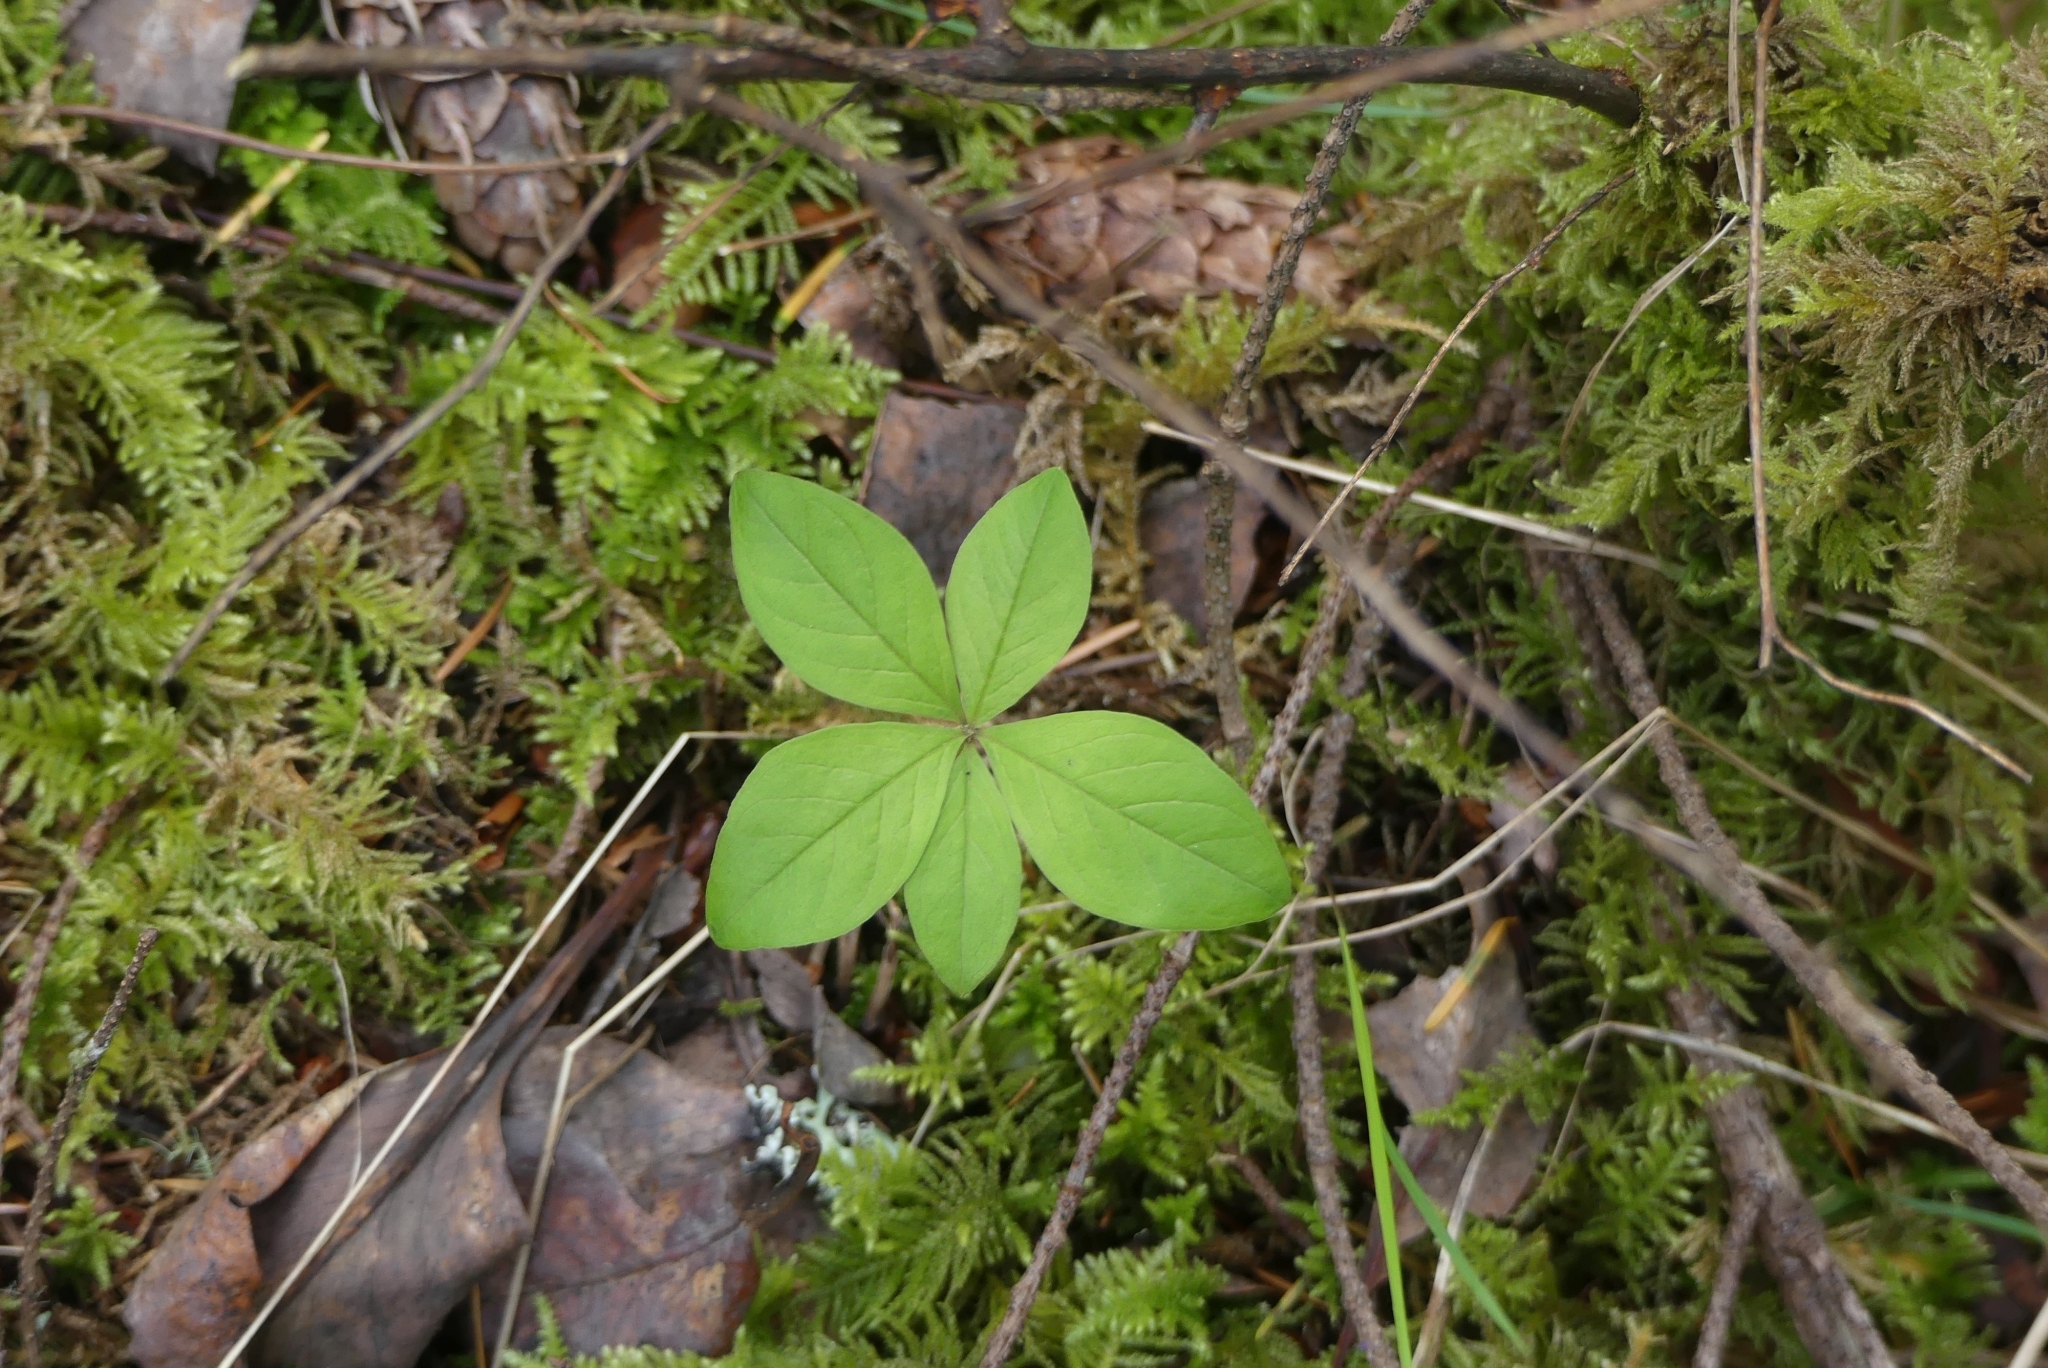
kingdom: Plantae
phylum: Tracheophyta
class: Magnoliopsida
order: Ericales
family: Primulaceae
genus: Lysimachia
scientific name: Lysimachia latifolia
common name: Pacific starflower
